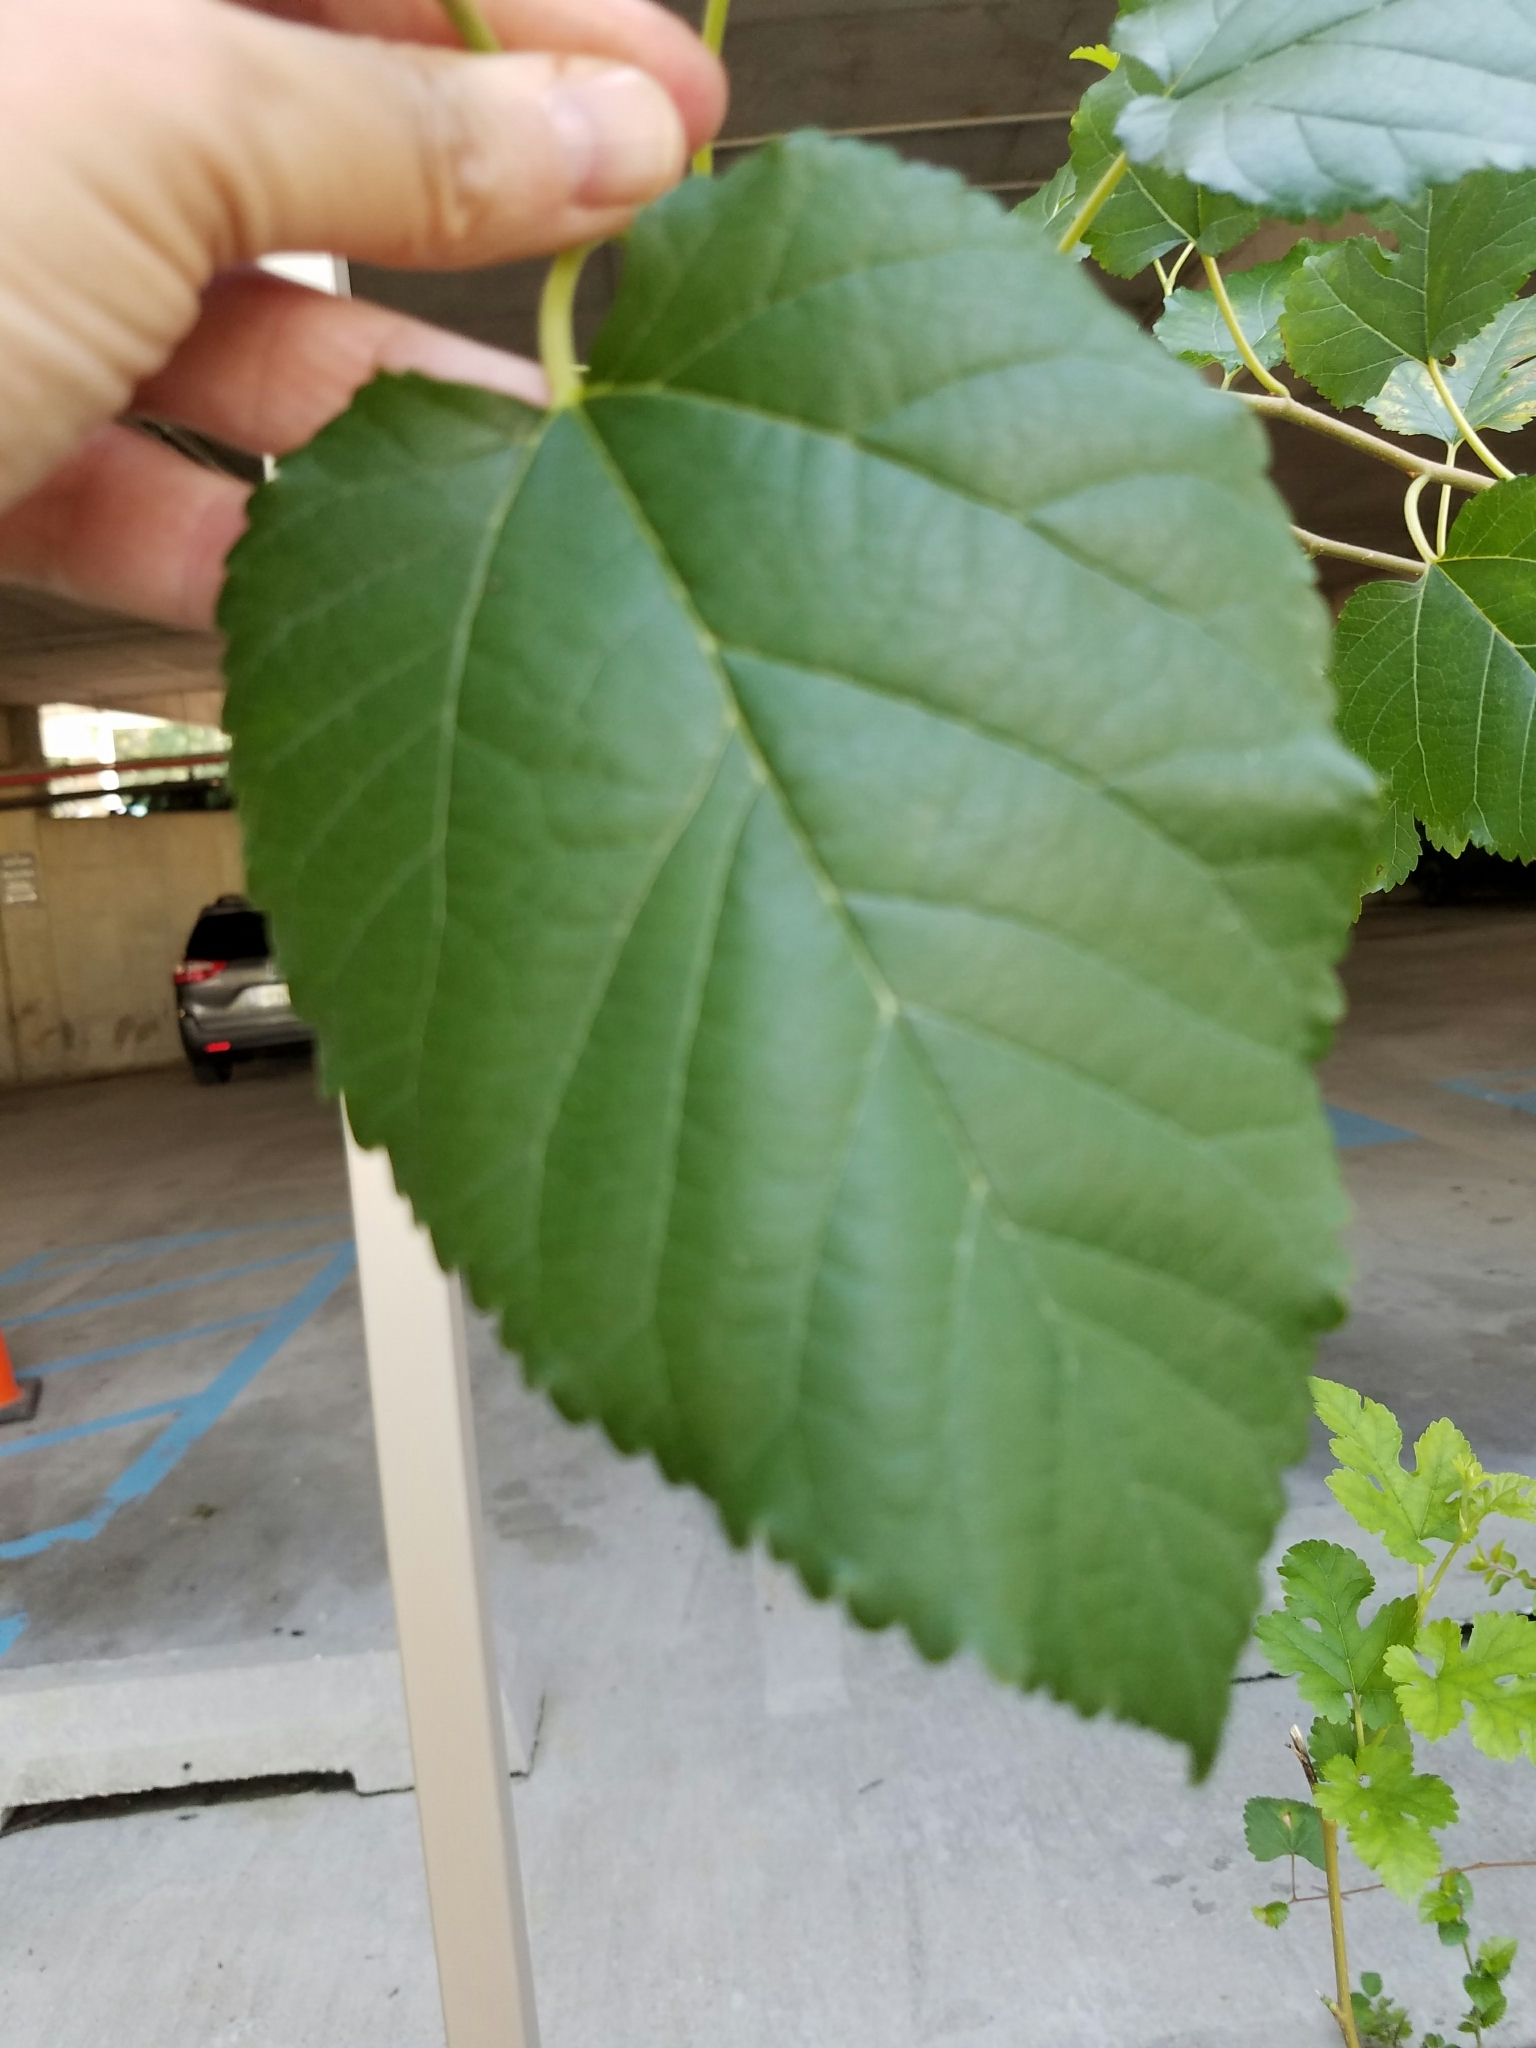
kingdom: Plantae
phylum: Tracheophyta
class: Magnoliopsida
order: Rosales
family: Moraceae
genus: Morus
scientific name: Morus alba
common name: White mulberry
